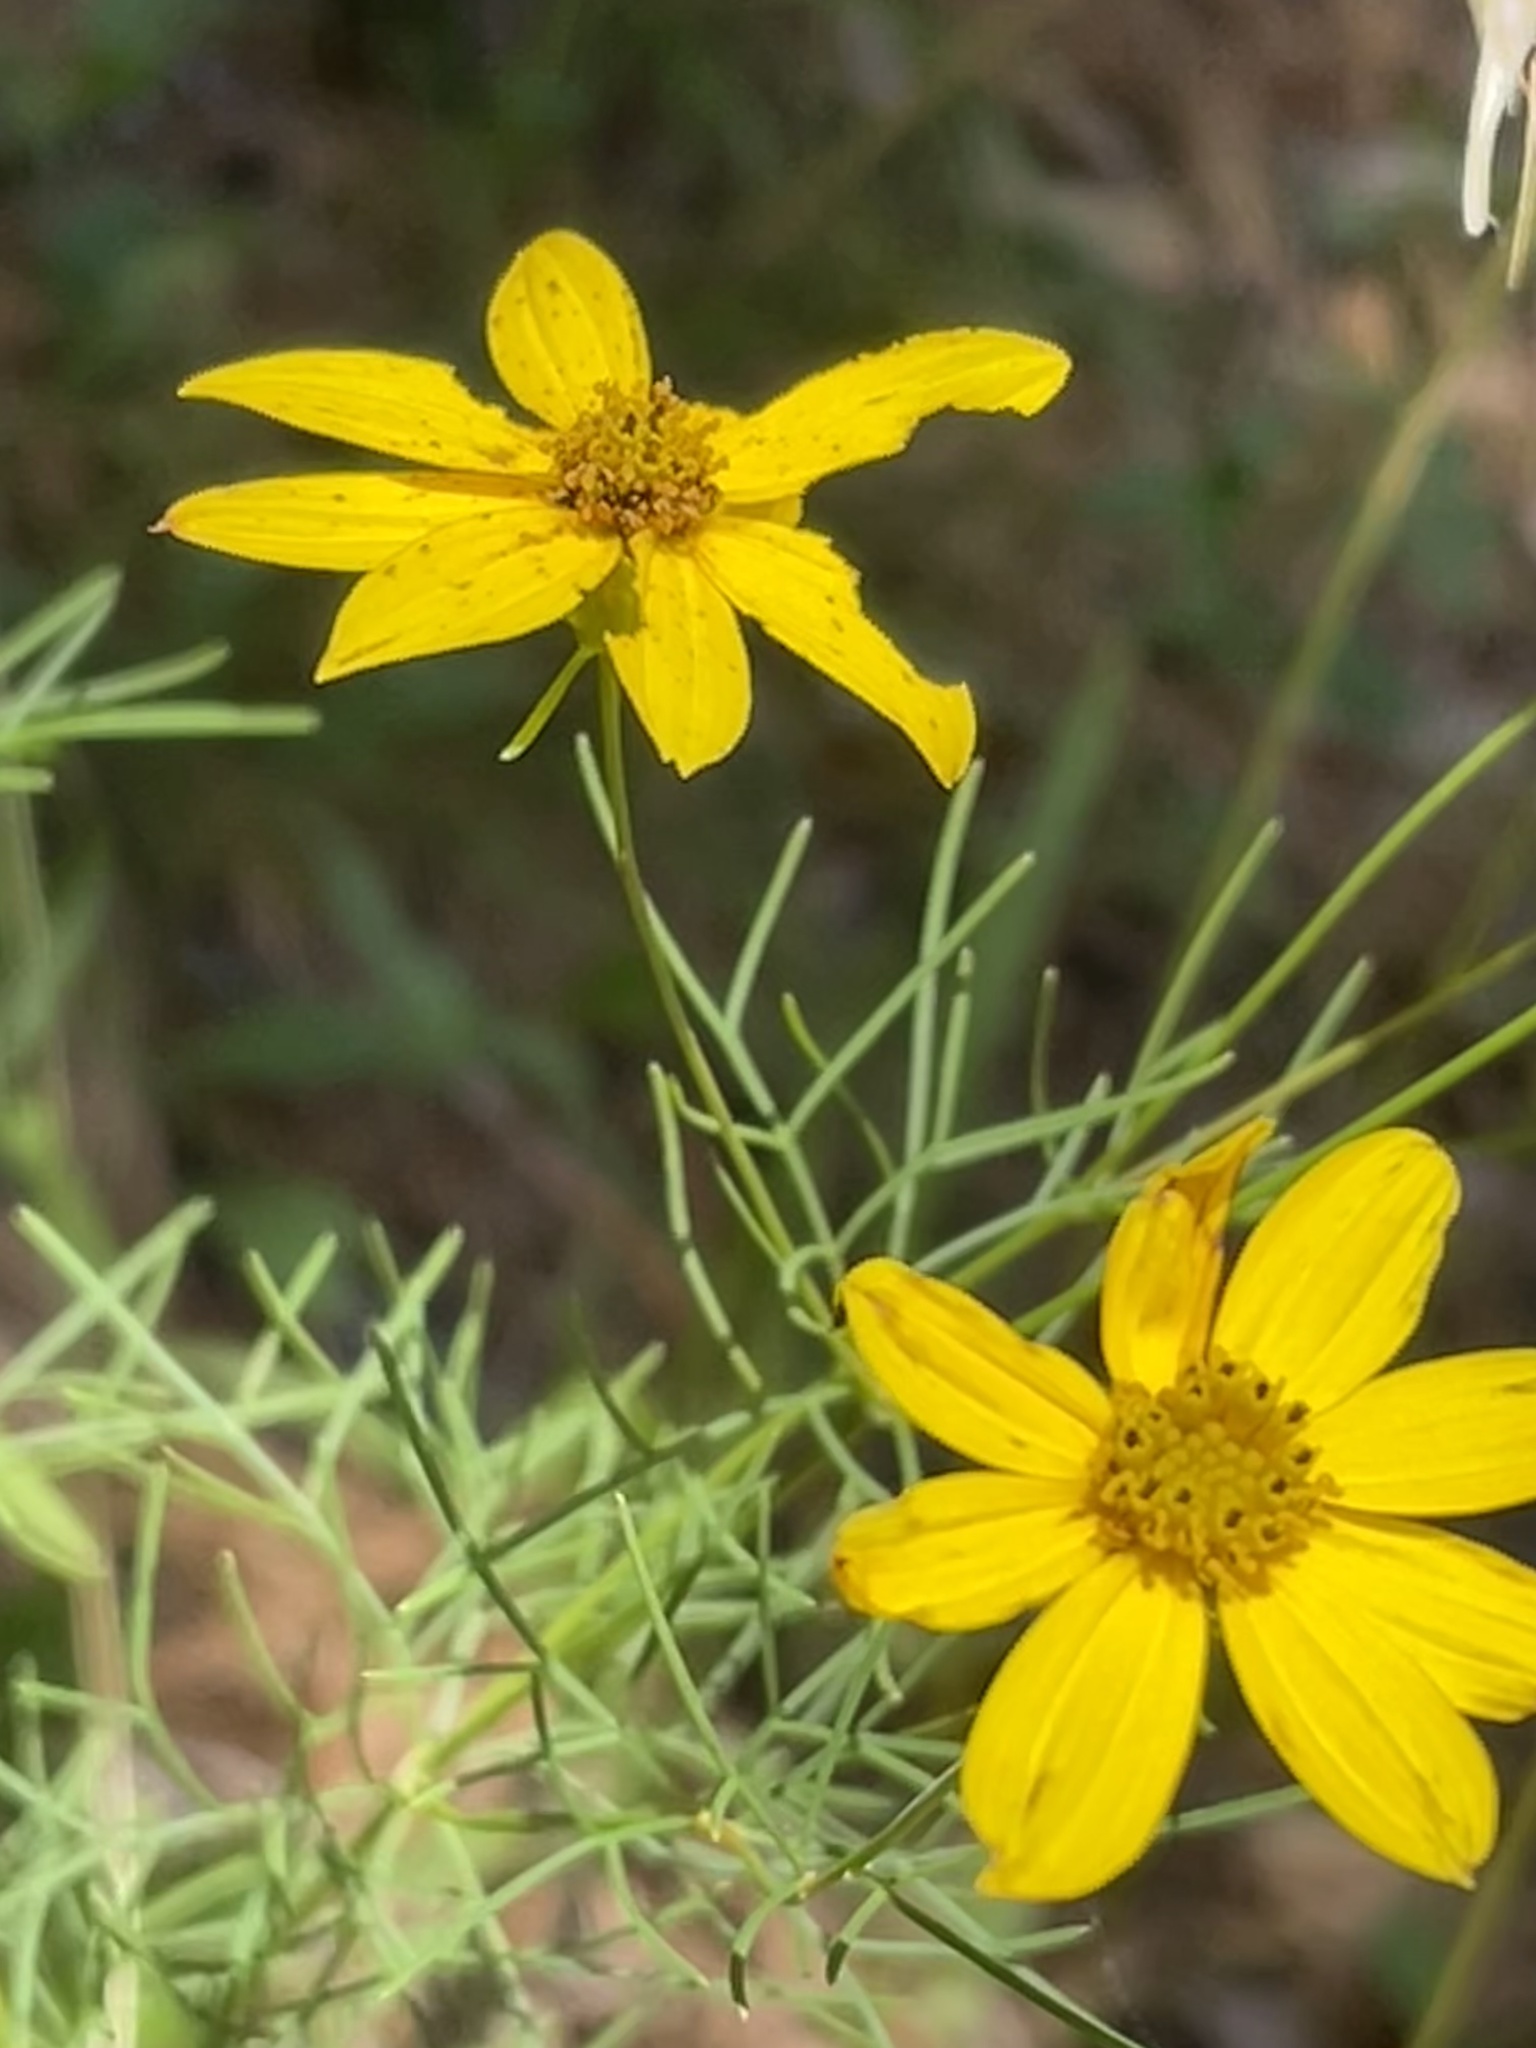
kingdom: Plantae
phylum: Tracheophyta
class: Magnoliopsida
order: Asterales
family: Asteraceae
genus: Coreopsis
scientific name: Coreopsis verticillata
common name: Whorled tickseed
